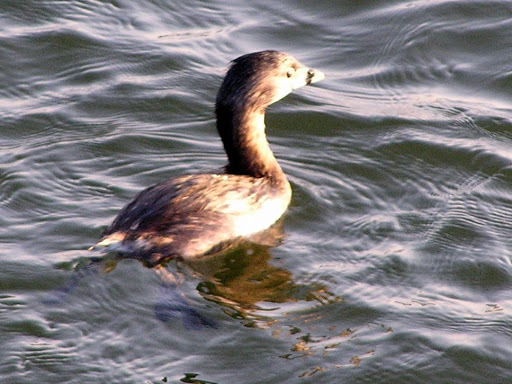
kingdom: Animalia
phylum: Chordata
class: Aves
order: Podicipediformes
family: Podicipedidae
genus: Podilymbus
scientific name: Podilymbus podiceps
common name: Pied-billed grebe
